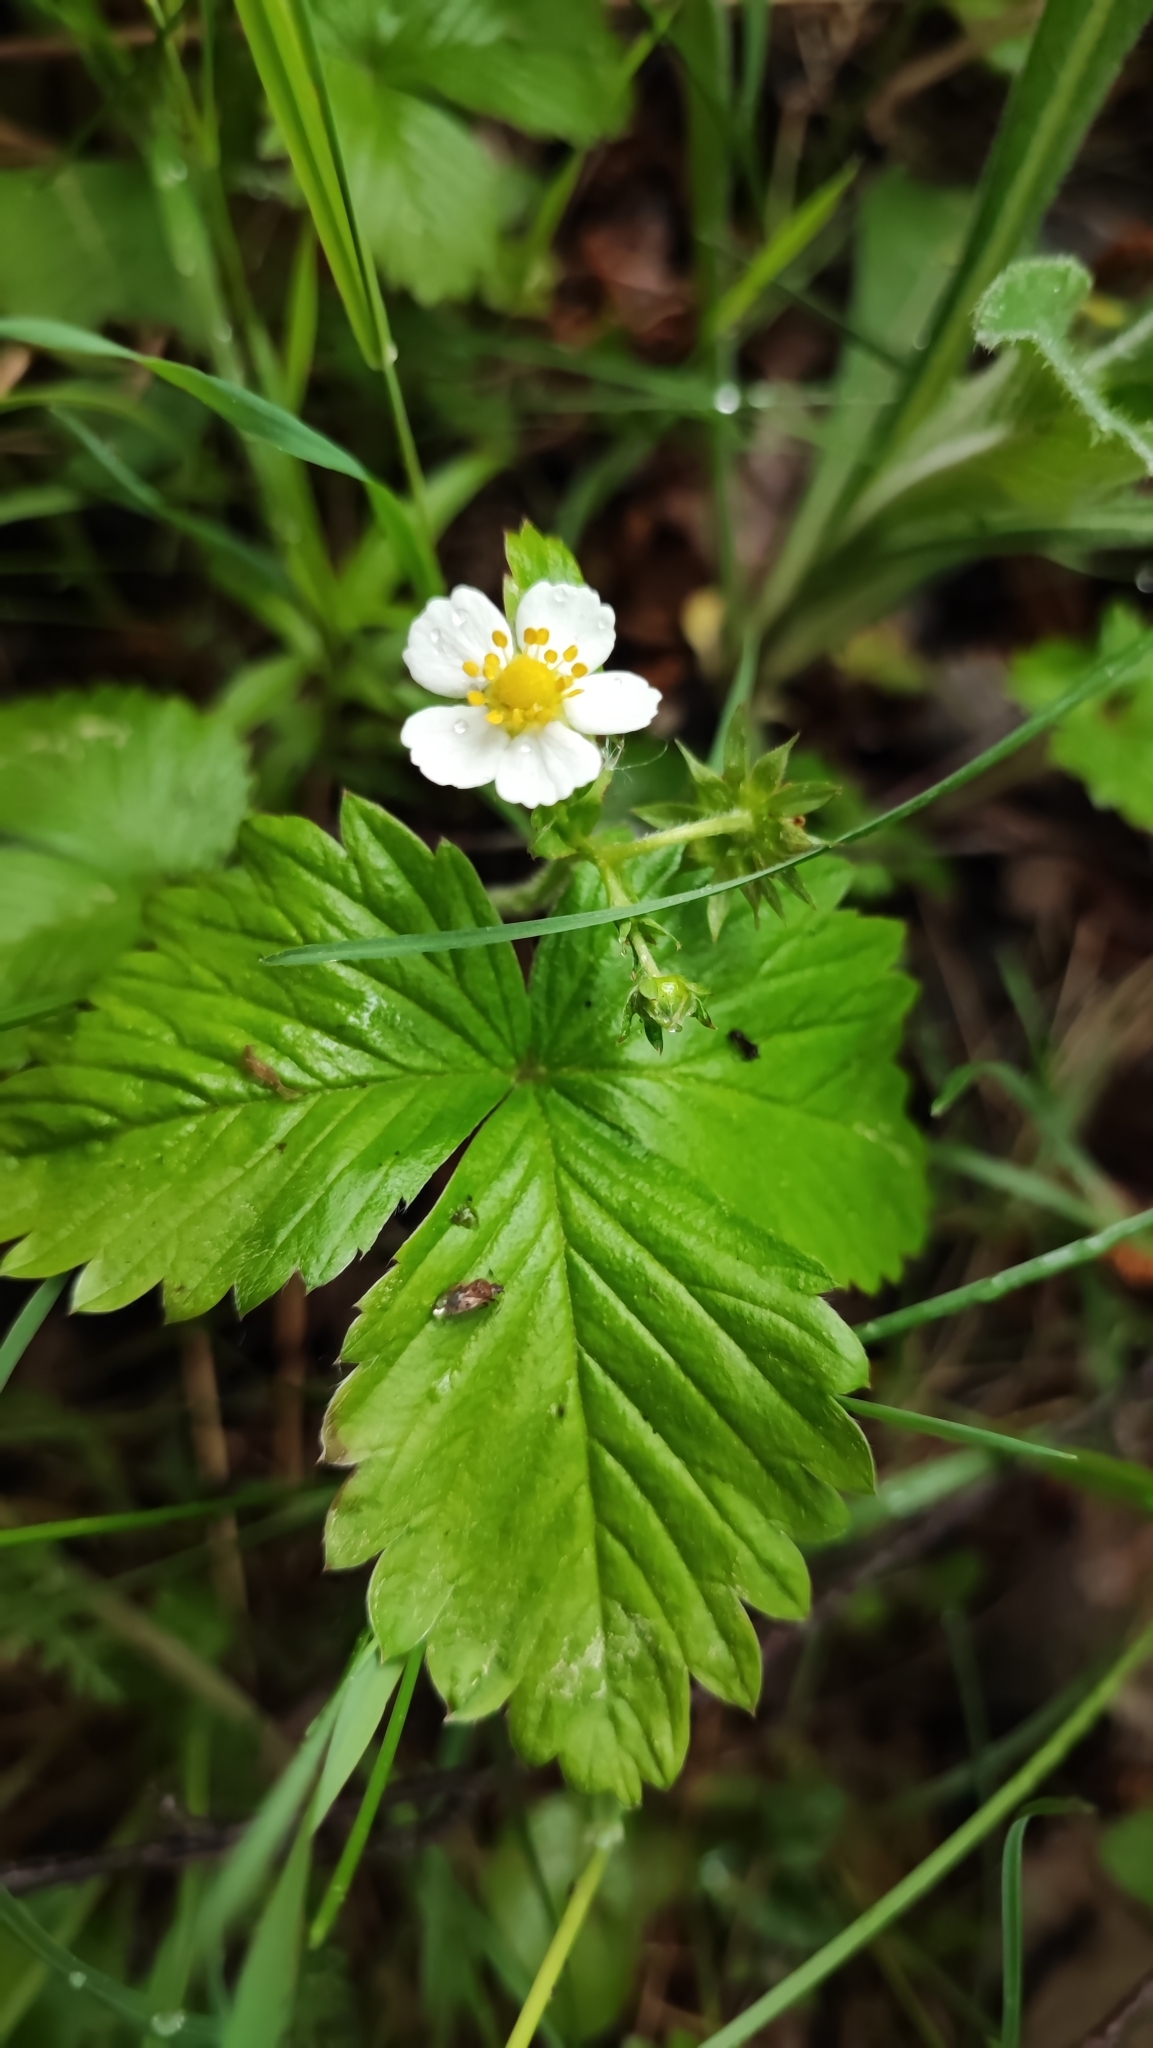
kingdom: Plantae
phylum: Tracheophyta
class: Magnoliopsida
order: Rosales
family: Rosaceae
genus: Fragaria
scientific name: Fragaria vesca
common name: Wild strawberry
